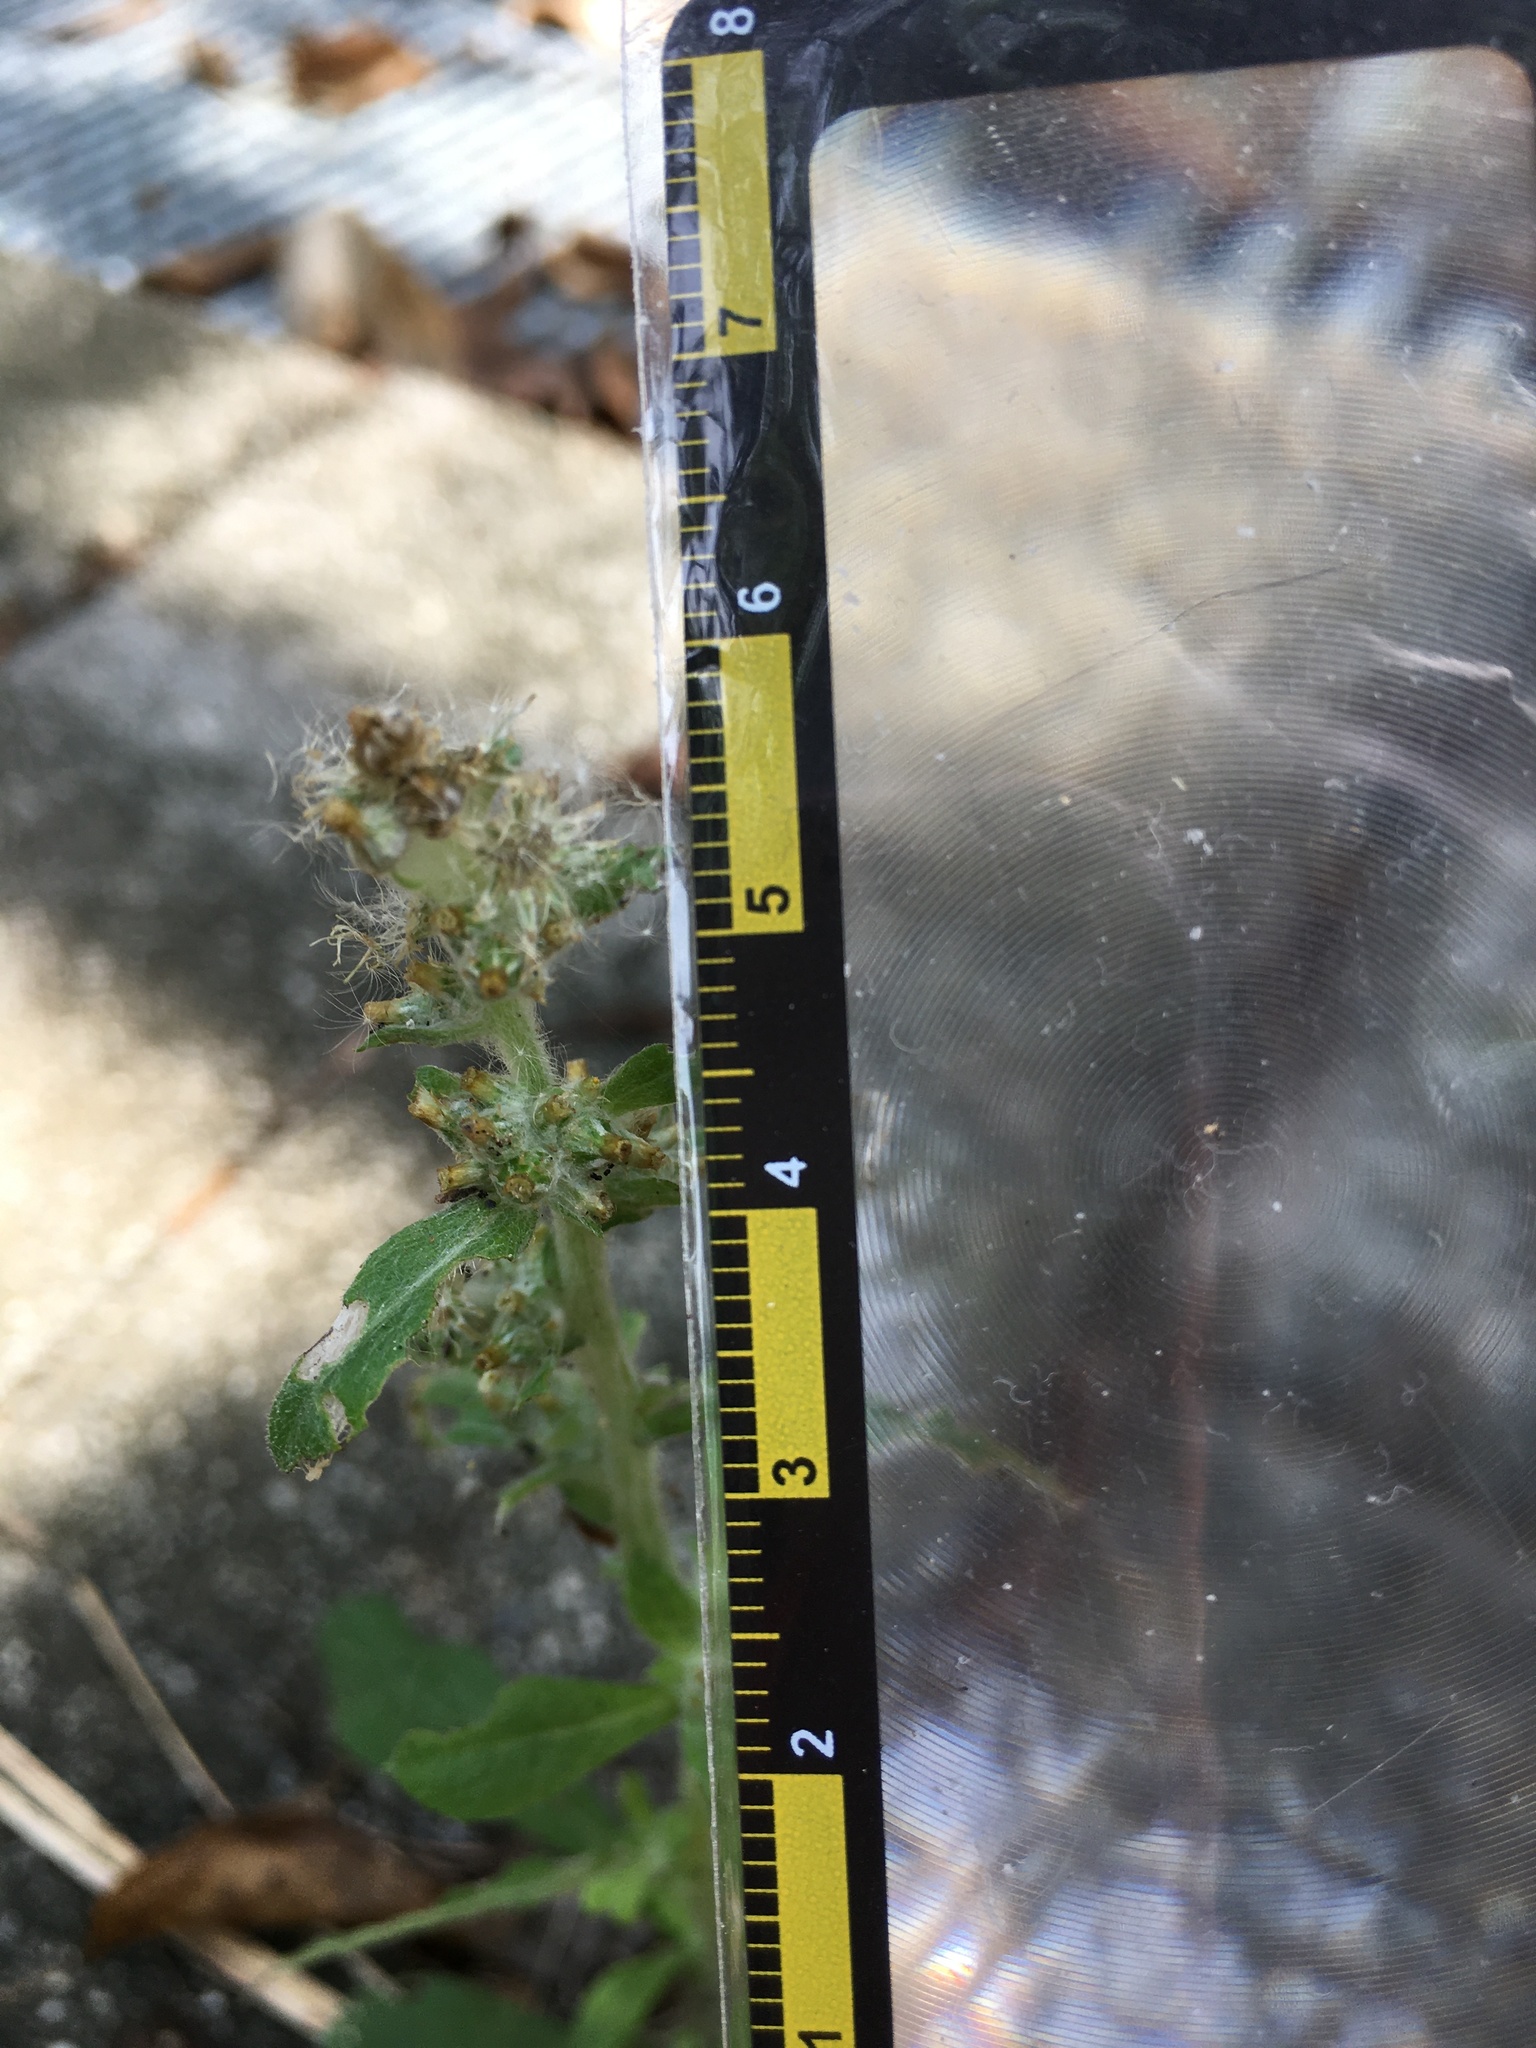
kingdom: Plantae
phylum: Tracheophyta
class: Magnoliopsida
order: Asterales
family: Asteraceae
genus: Gamochaeta
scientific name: Gamochaeta pensylvanica
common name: Pennsylvania everlasting
